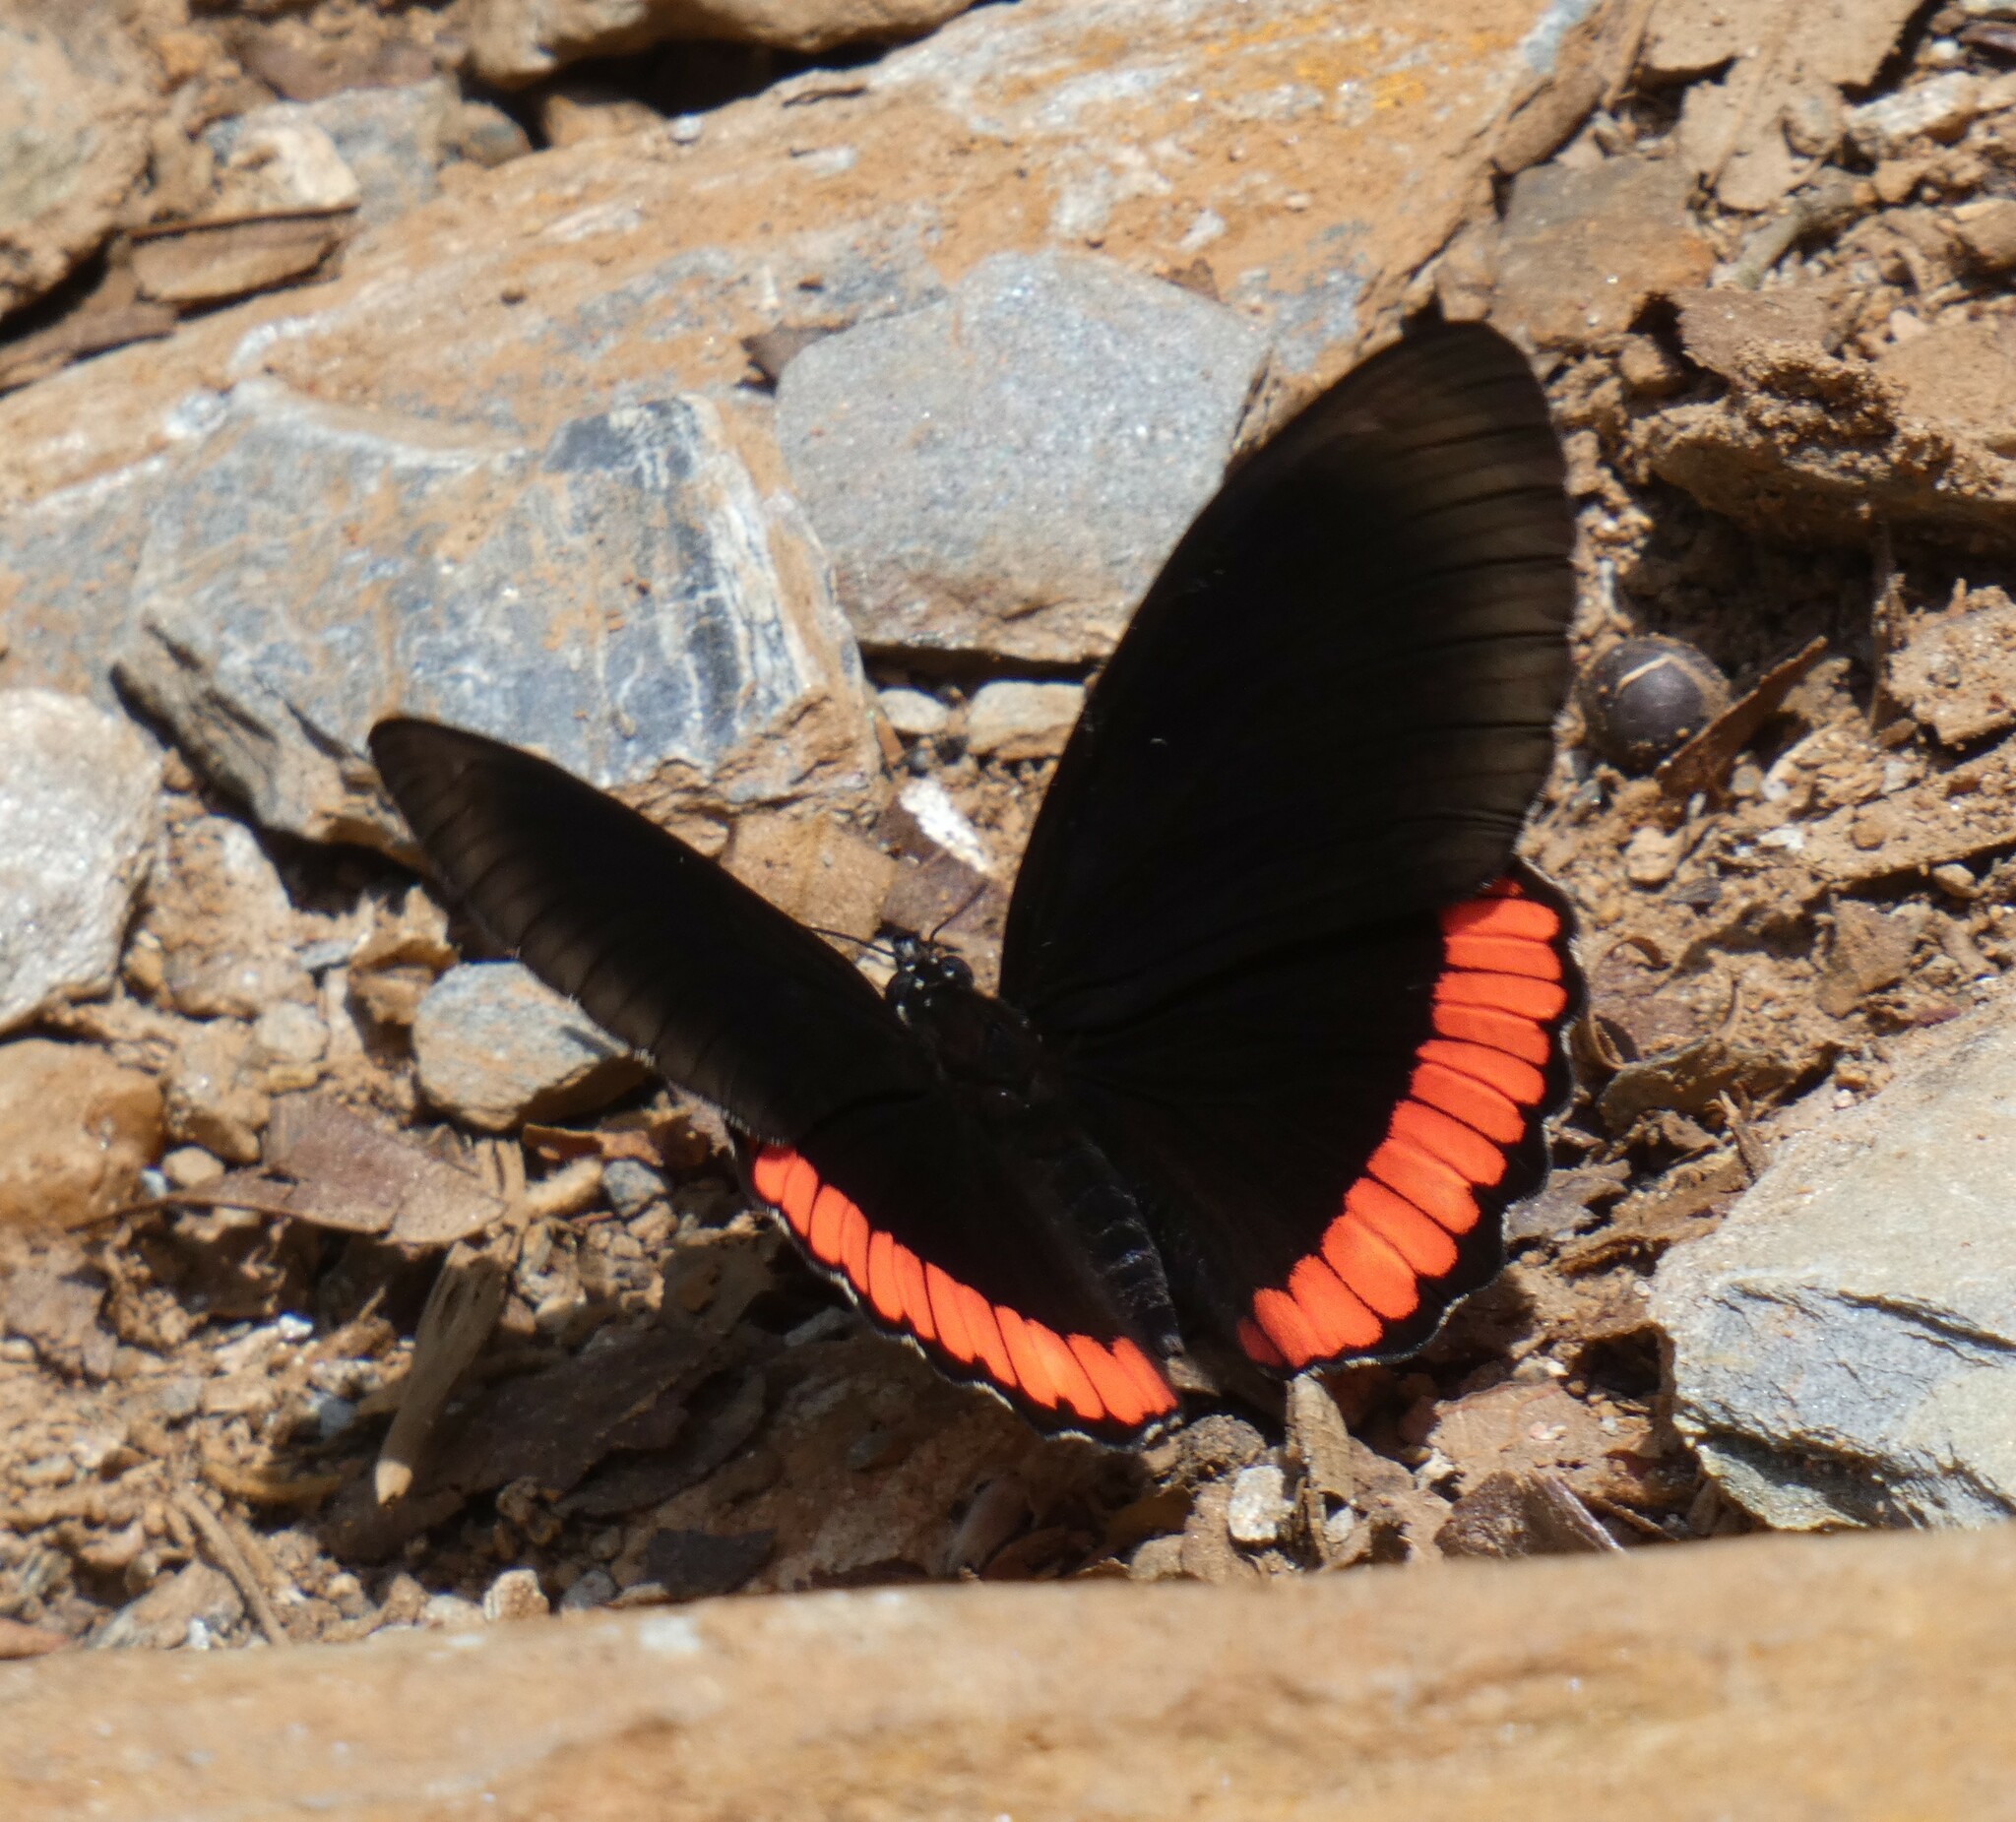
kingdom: Animalia
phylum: Arthropoda
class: Insecta
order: Lepidoptera
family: Sesiidae
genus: Sesia
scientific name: Sesia Biblis hyperia
